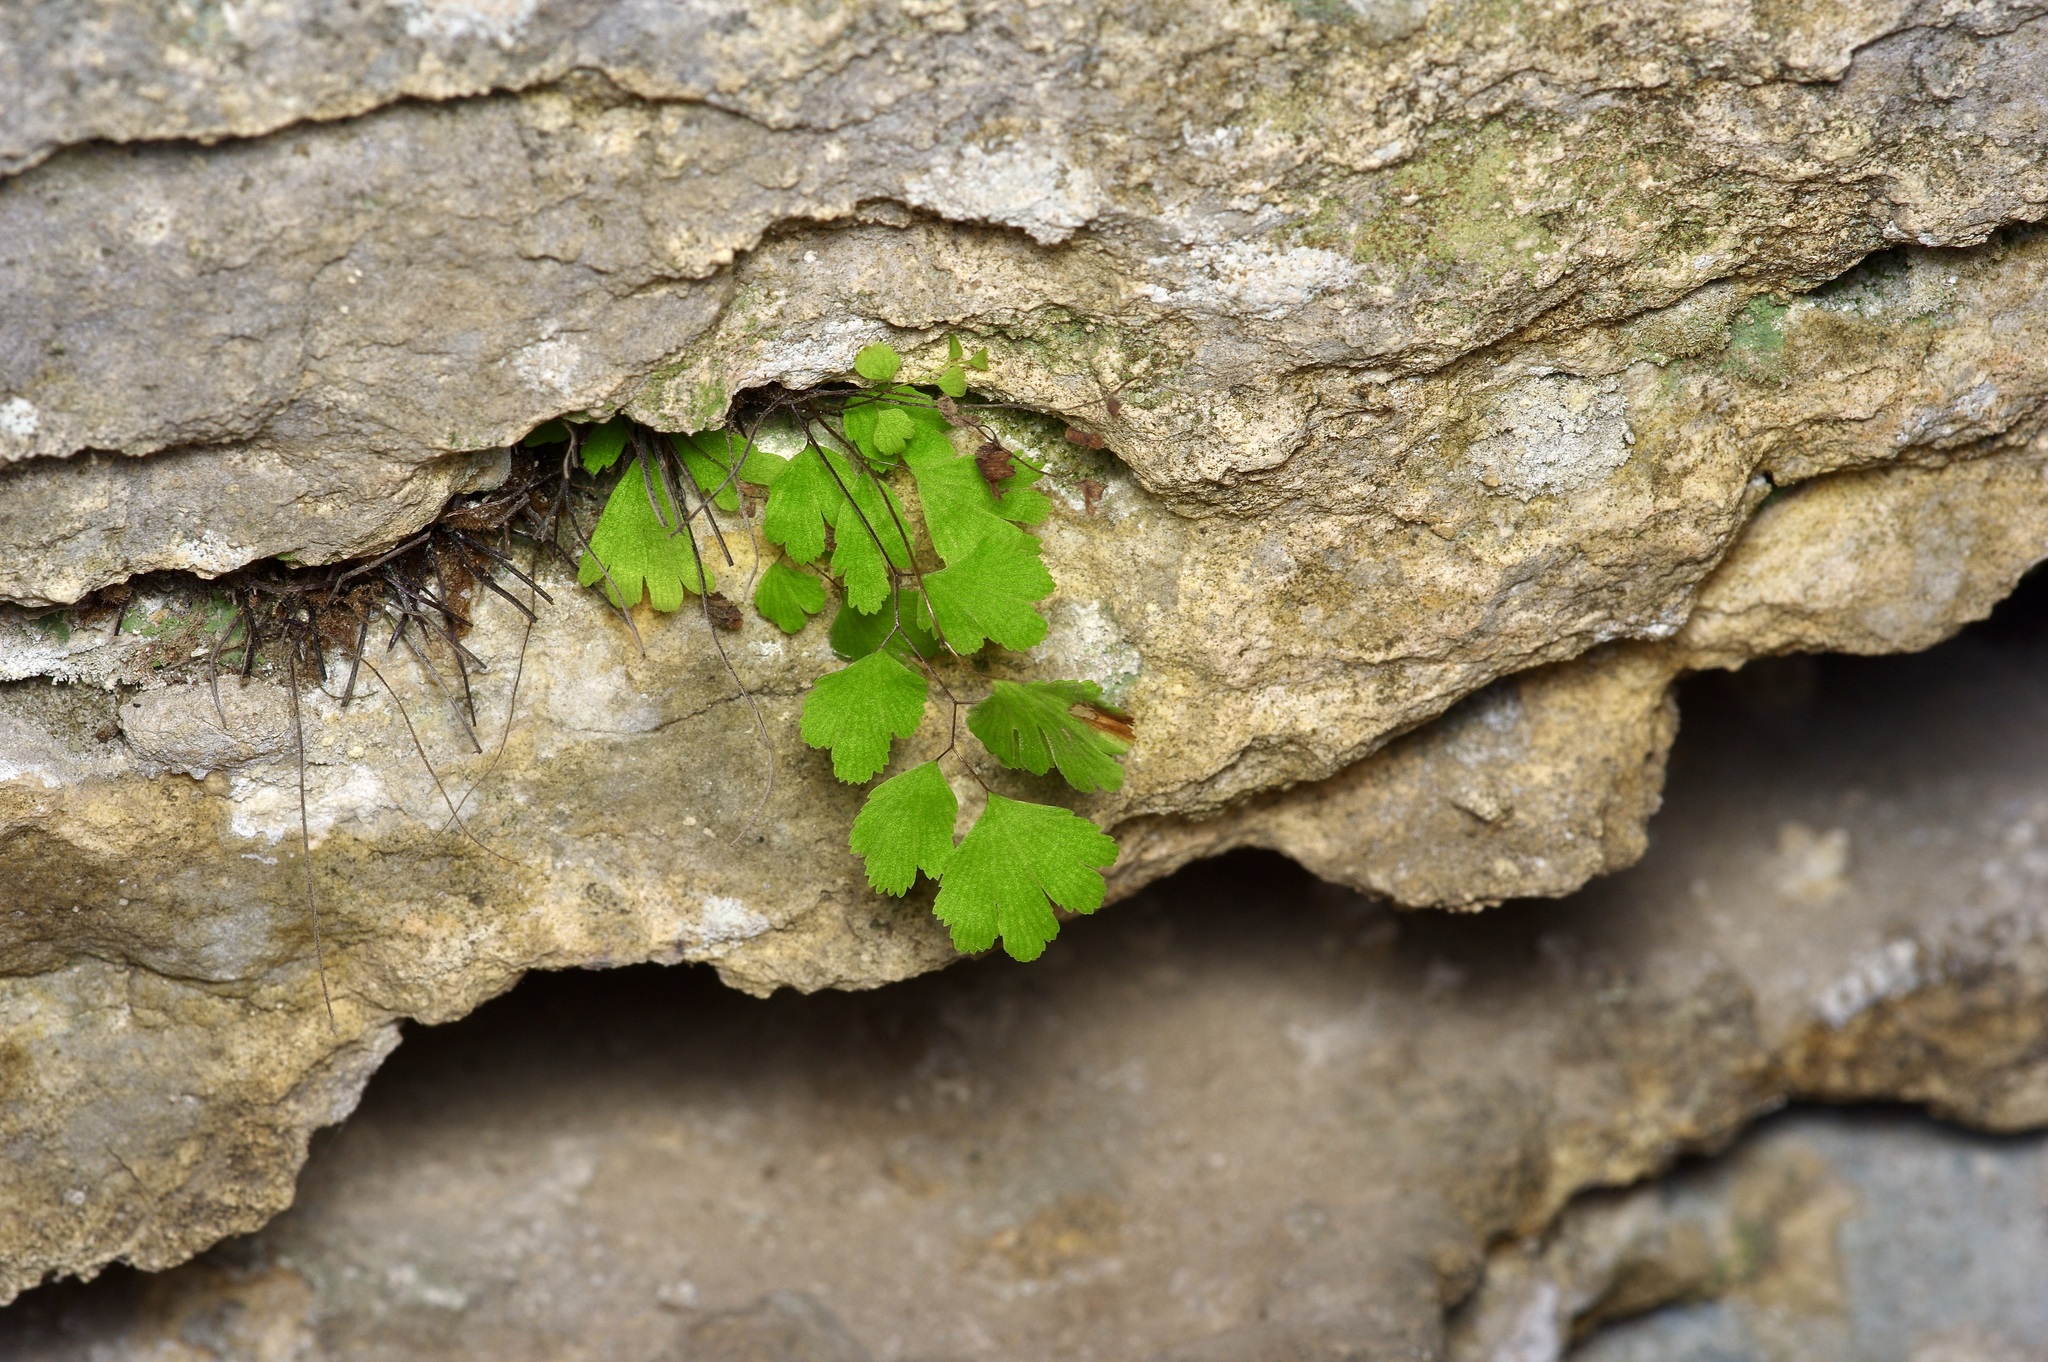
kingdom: Plantae
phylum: Tracheophyta
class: Polypodiopsida
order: Polypodiales
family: Pteridaceae
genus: Adiantum
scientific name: Adiantum capillus-veneris
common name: Maidenhair fern
